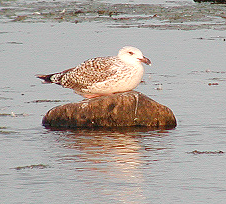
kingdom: Animalia
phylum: Chordata
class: Aves
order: Charadriiformes
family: Laridae
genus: Larus
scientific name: Larus marinus
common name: Great black-backed gull
